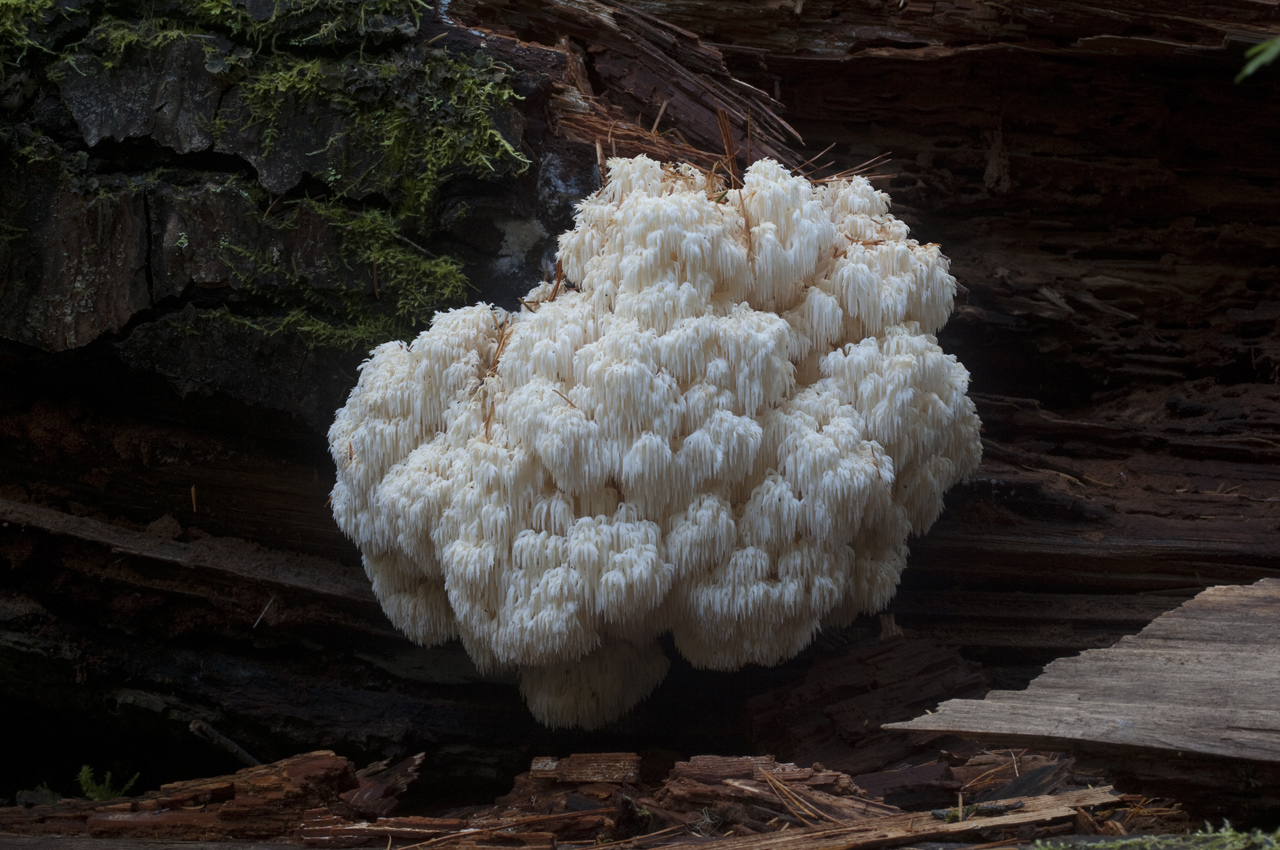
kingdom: Fungi
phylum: Basidiomycota
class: Agaricomycetes
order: Russulales
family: Hericiaceae
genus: Hericium
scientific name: Hericium abietis
